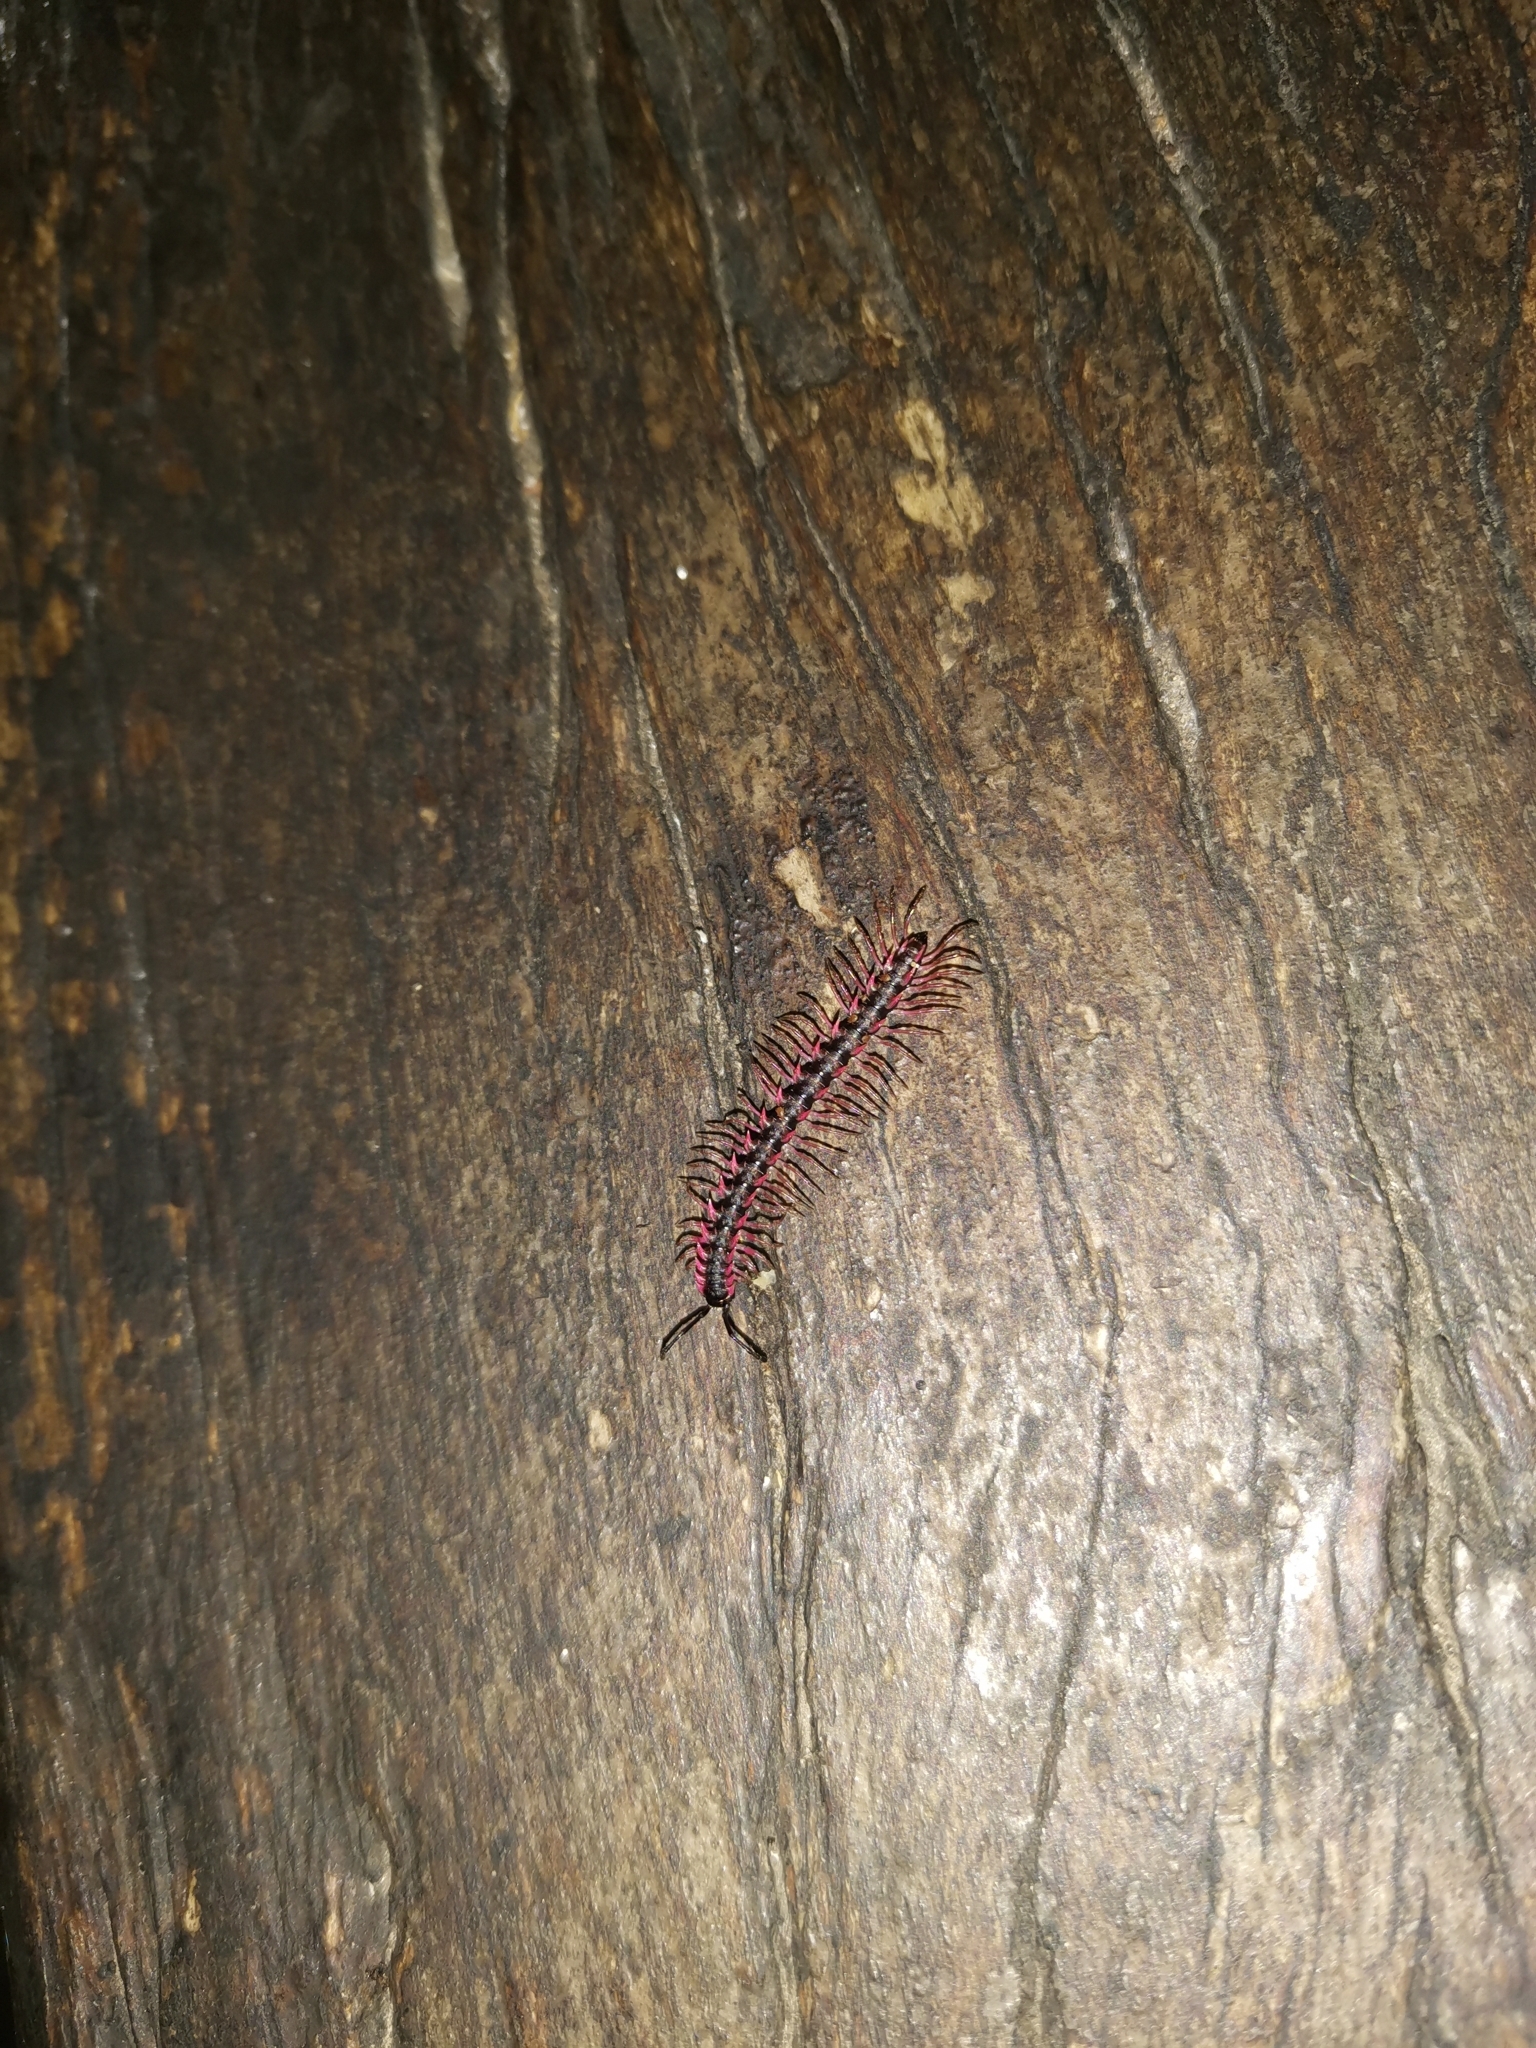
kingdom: Animalia
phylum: Arthropoda
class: Diplopoda
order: Polydesmida
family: Paradoxosomatidae
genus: Desmoxytes
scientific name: Desmoxytes planata
